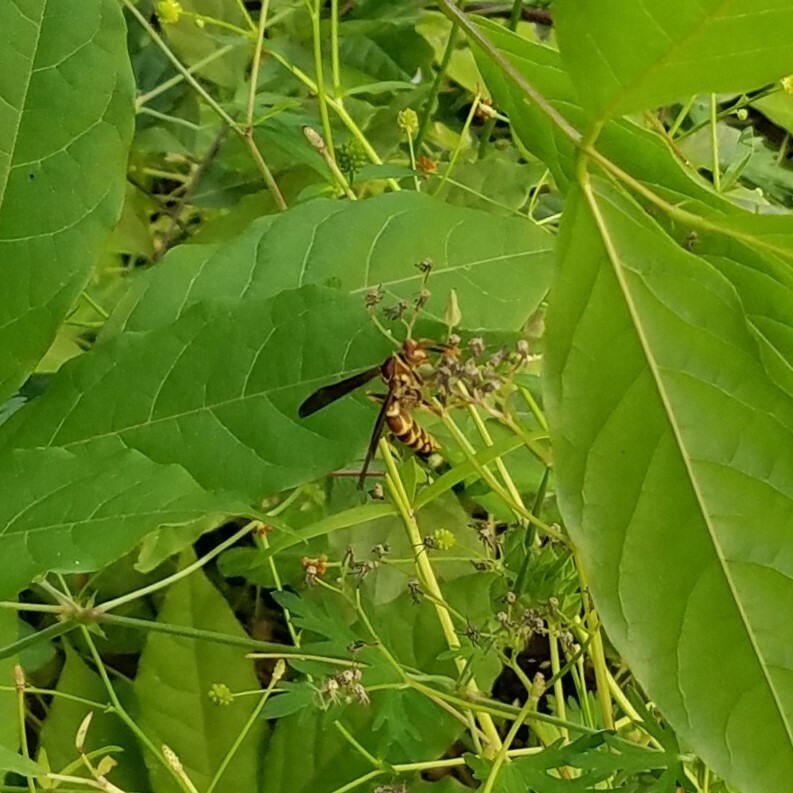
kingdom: Animalia
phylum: Arthropoda
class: Insecta
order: Hymenoptera
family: Eumenidae
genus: Polistes
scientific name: Polistes exclamans
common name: Paper wasp
